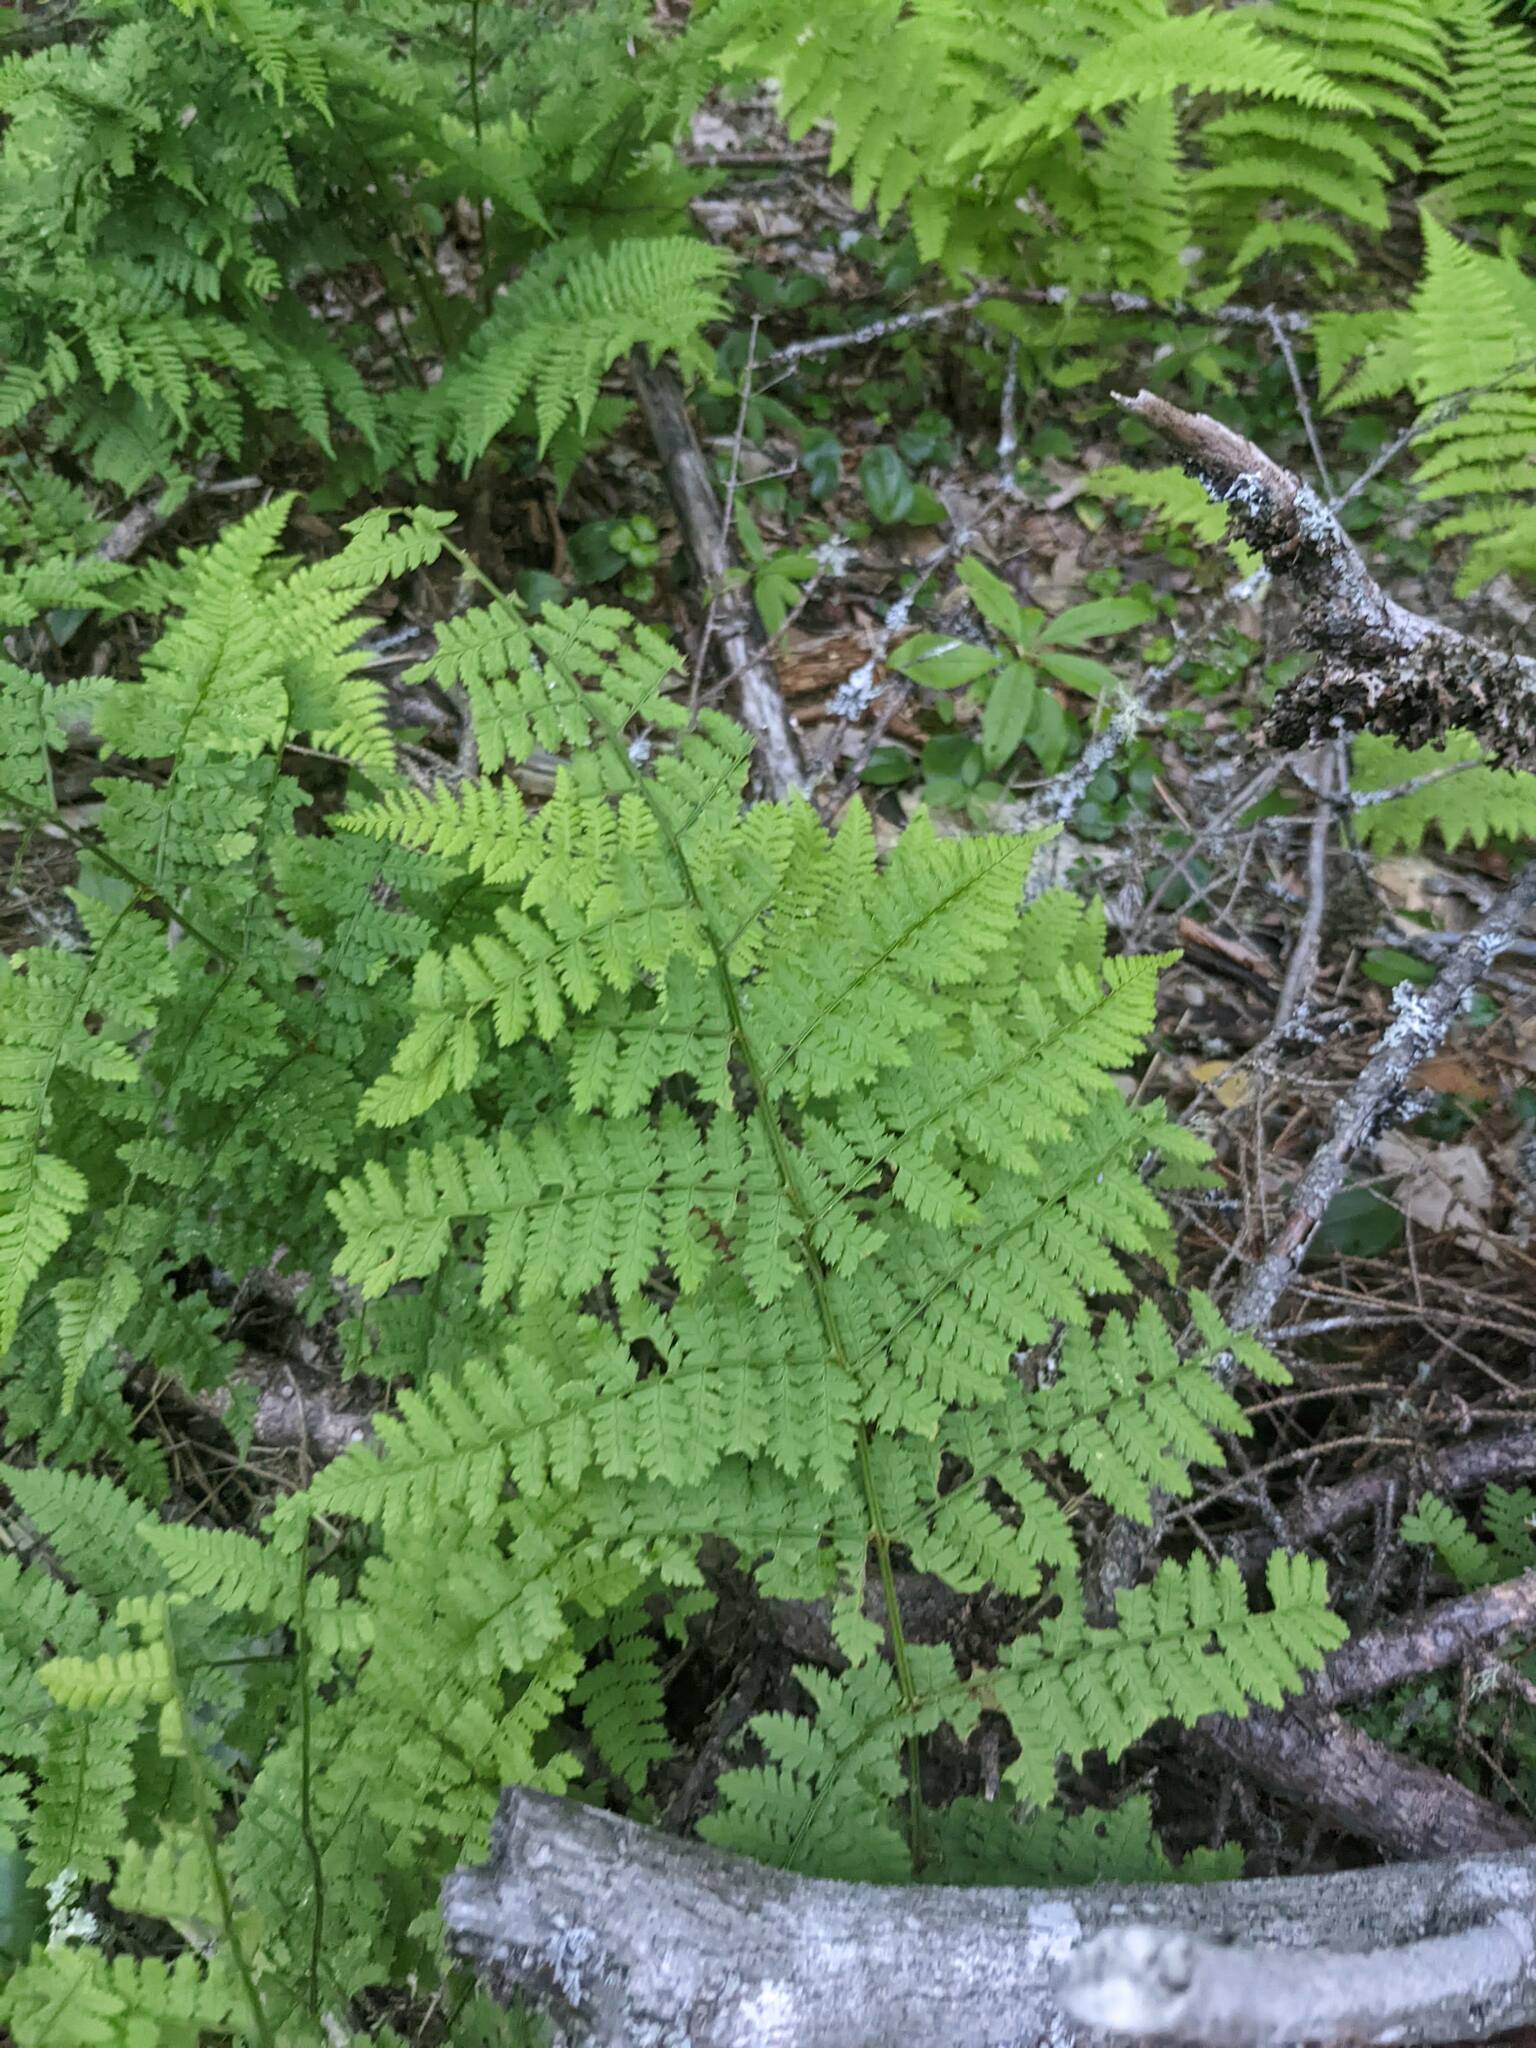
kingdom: Plantae
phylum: Tracheophyta
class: Polypodiopsida
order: Polypodiales
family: Dryopteridaceae
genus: Dryopteris
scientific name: Dryopteris intermedia
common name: Evergreen wood fern
